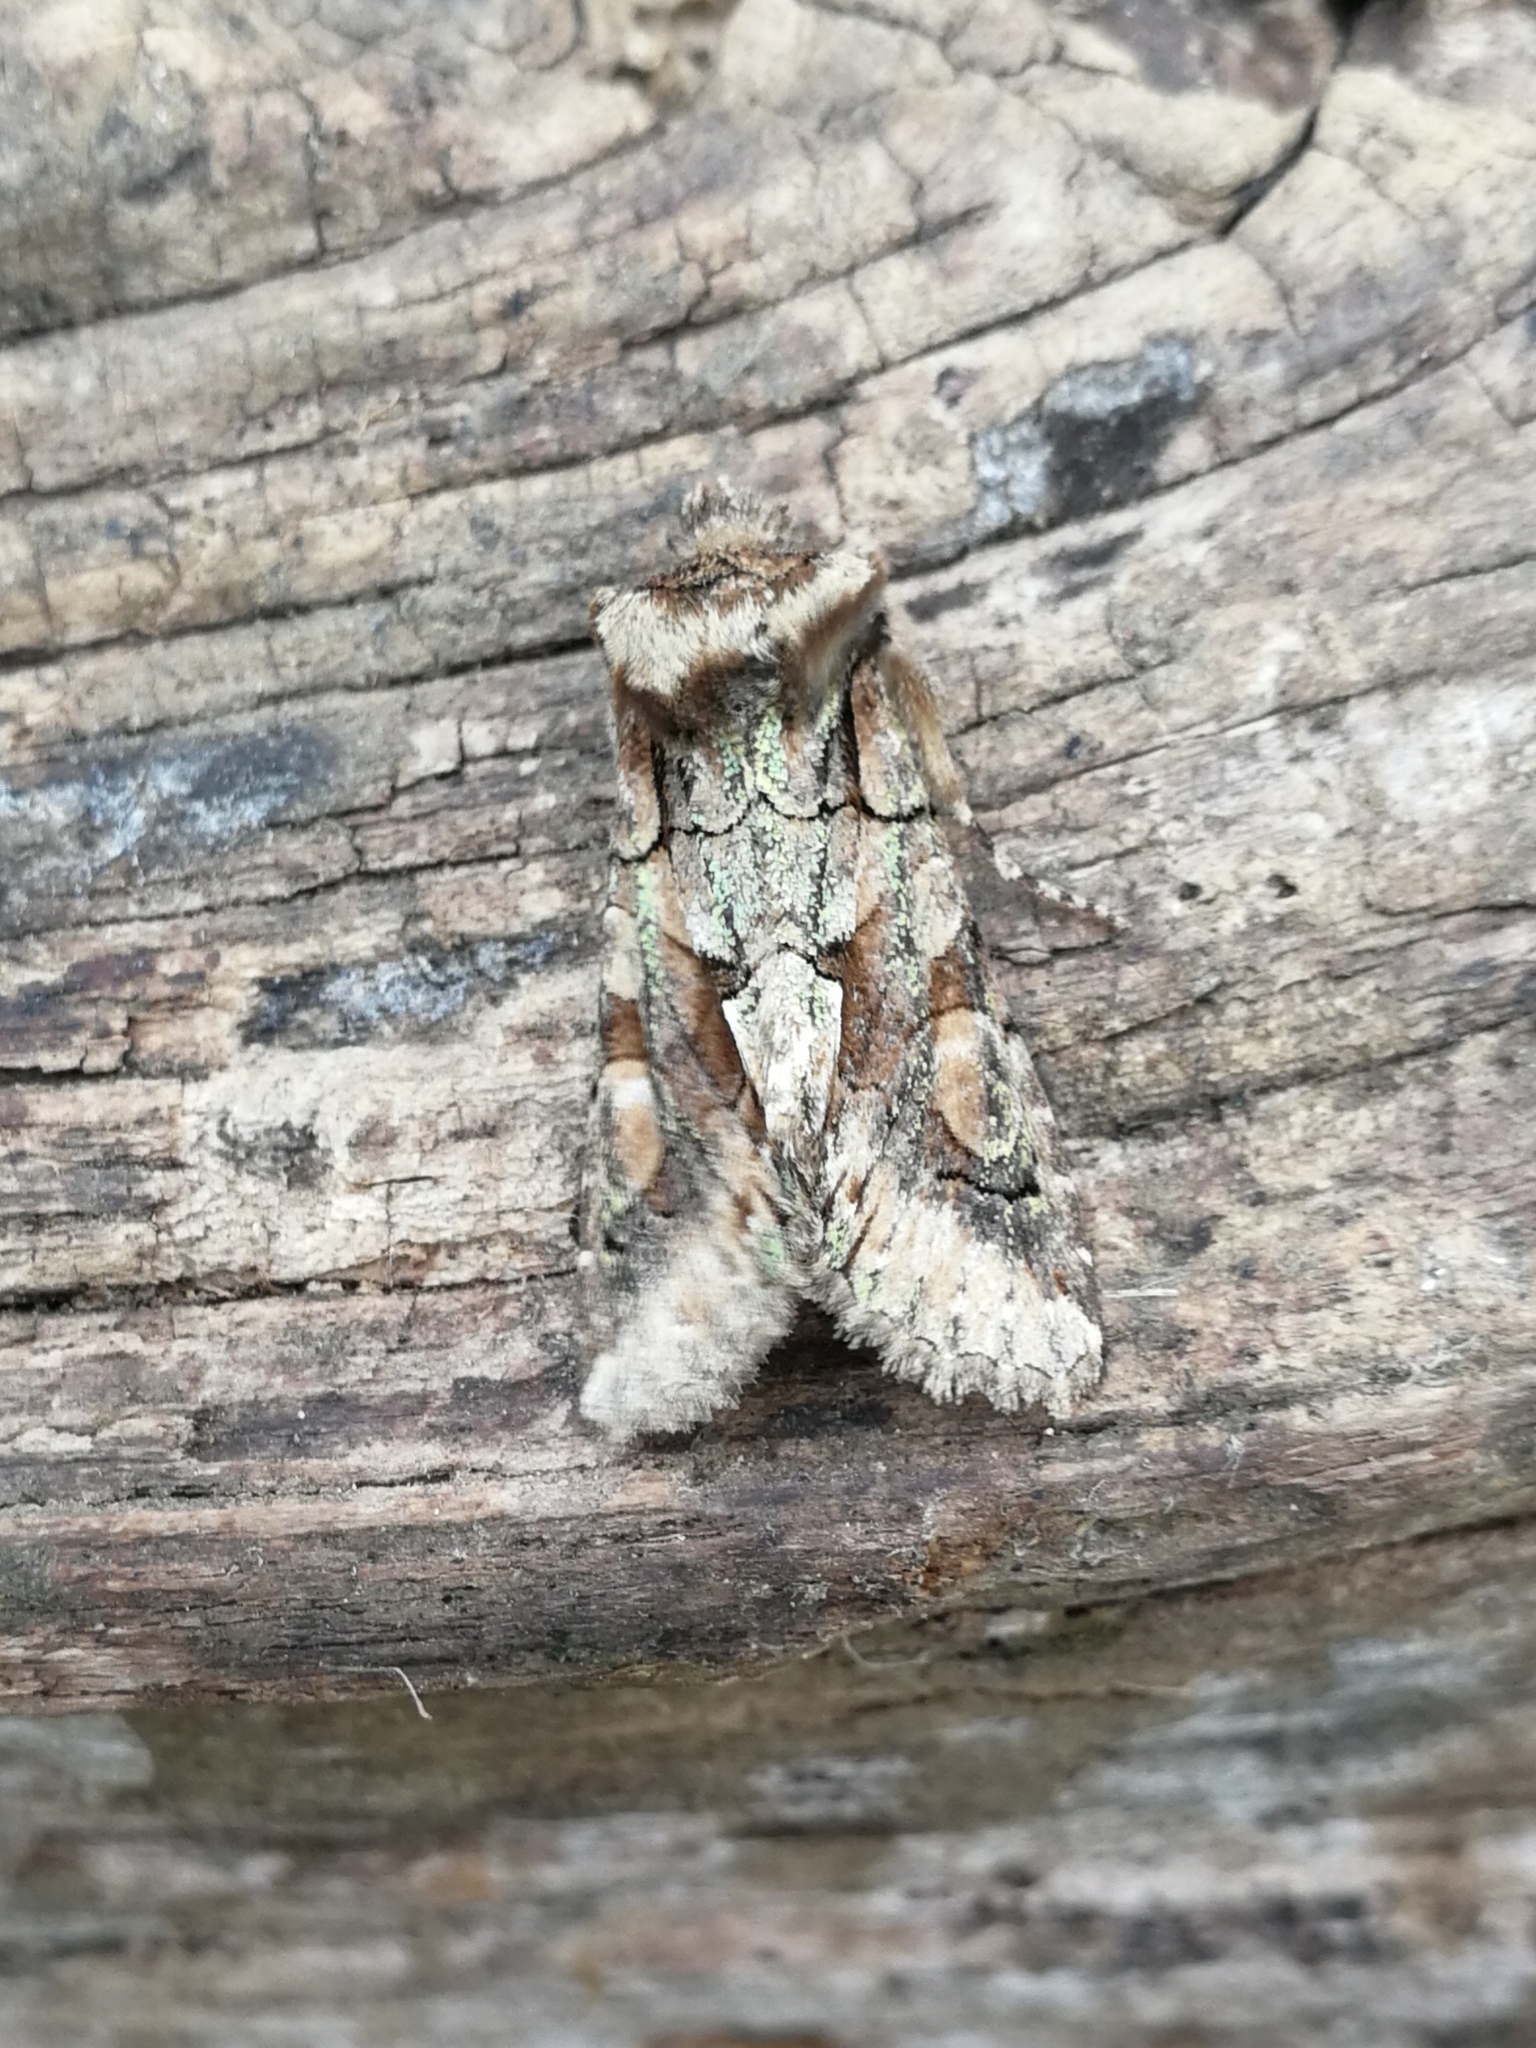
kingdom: Animalia
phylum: Arthropoda
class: Insecta
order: Lepidoptera
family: Noctuidae
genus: Allophyes
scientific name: Allophyes alfaroi
